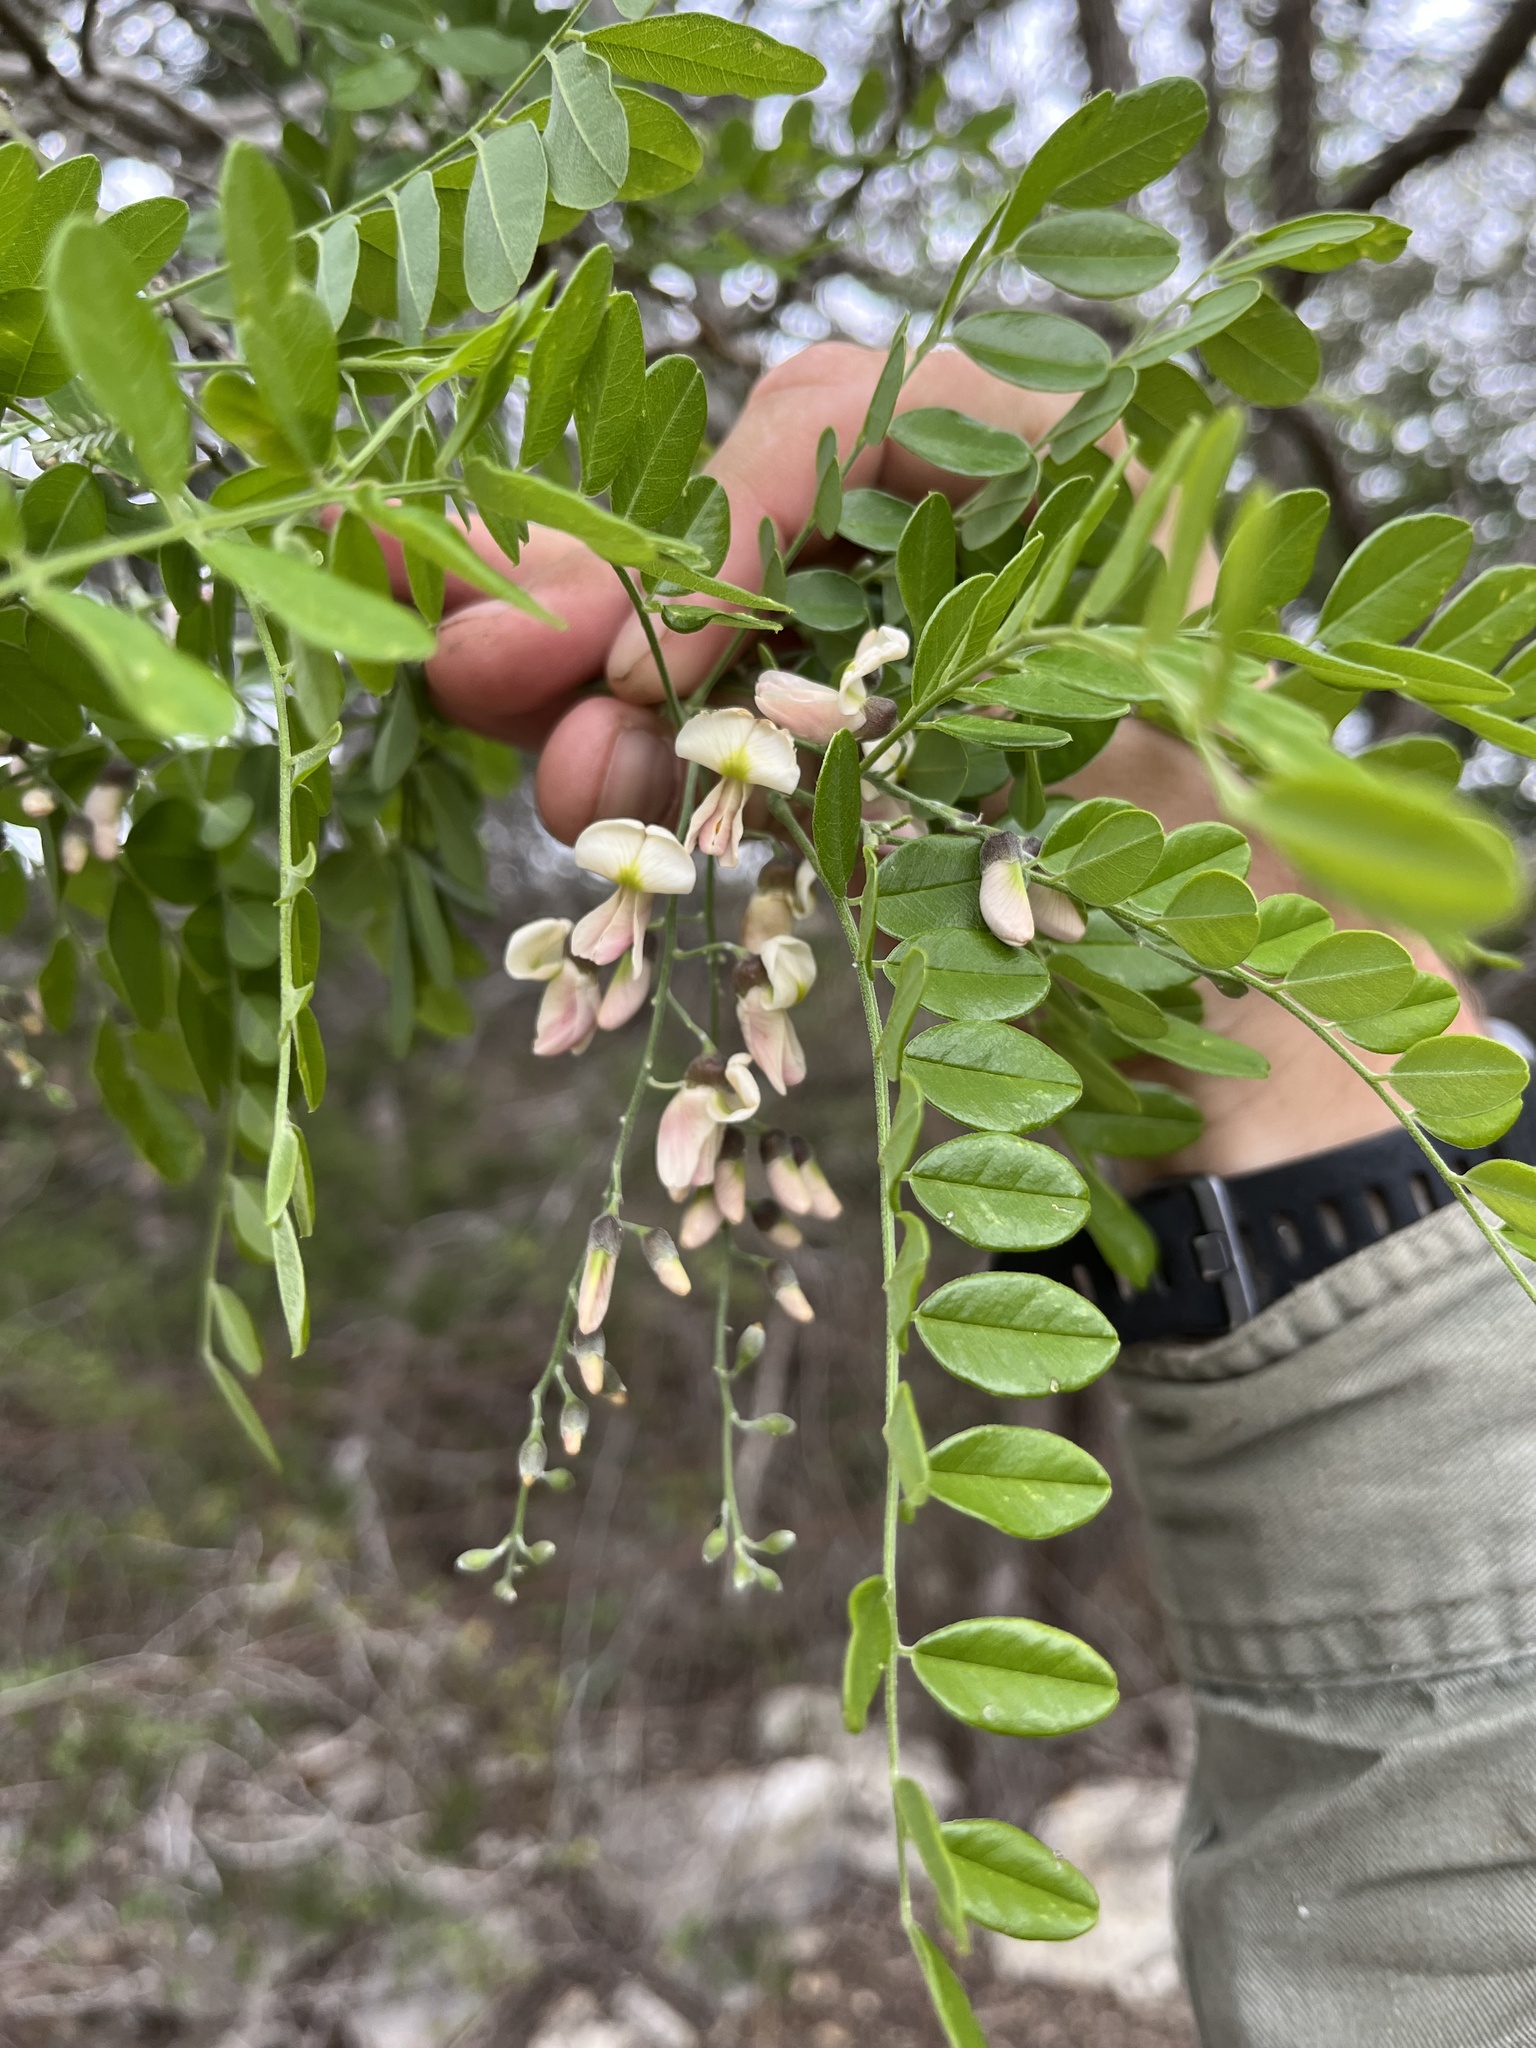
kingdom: Plantae
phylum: Tracheophyta
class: Magnoliopsida
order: Fabales
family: Fabaceae
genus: Styphnolobium
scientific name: Styphnolobium affine
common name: Texas sophora
